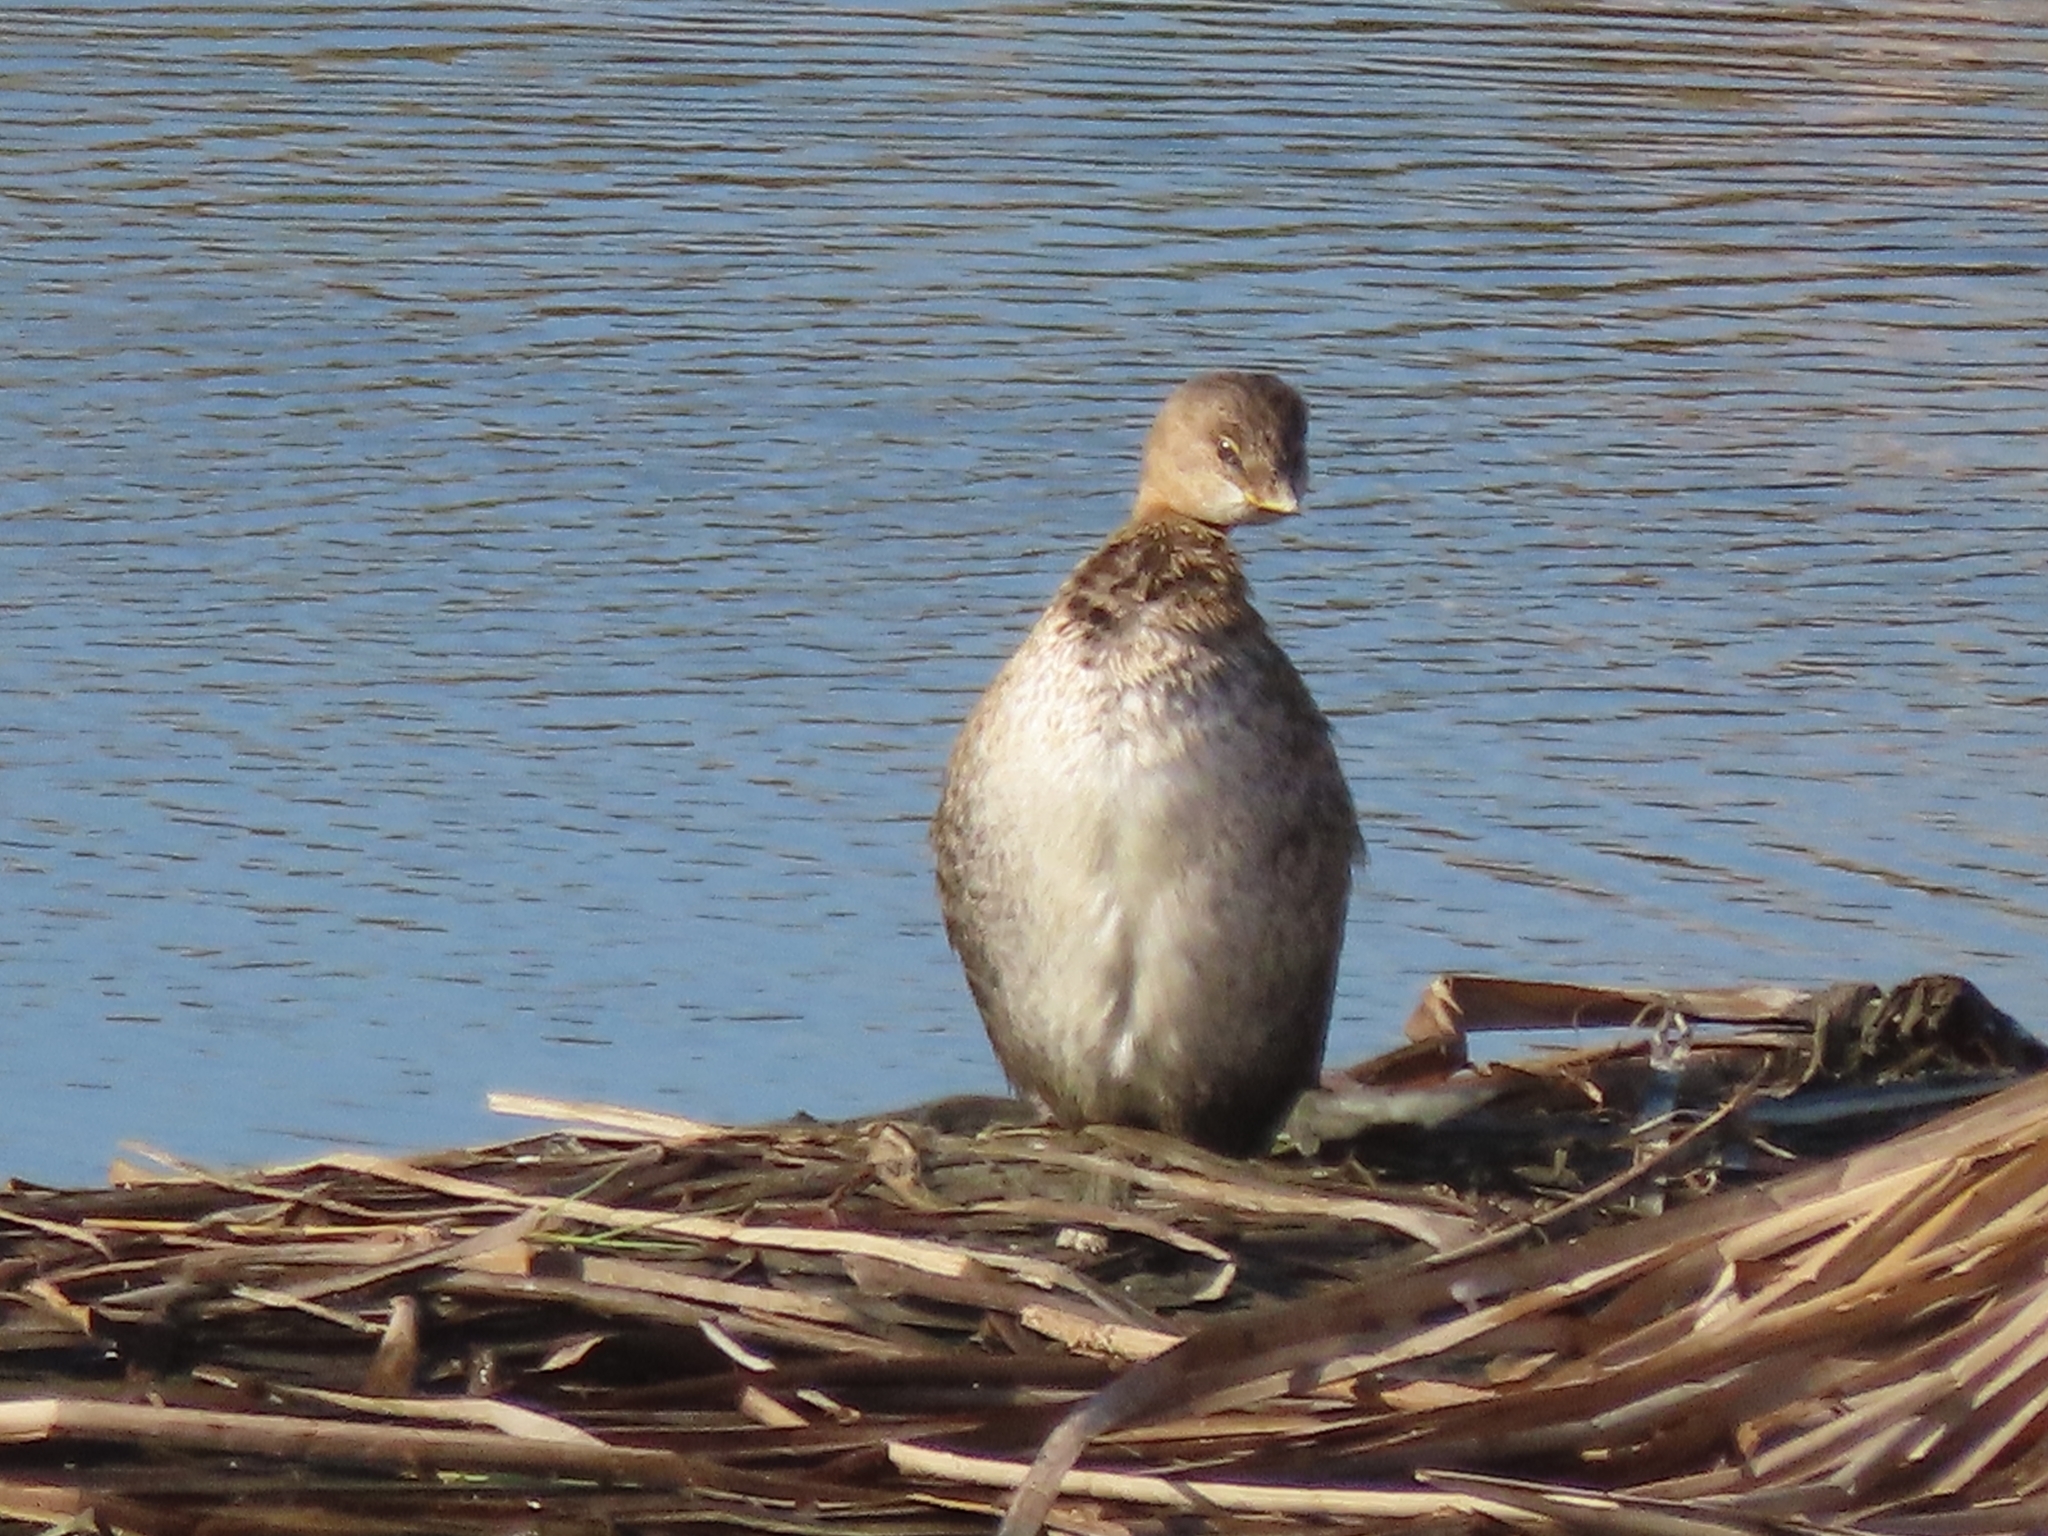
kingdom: Animalia
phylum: Chordata
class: Aves
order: Podicipediformes
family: Podicipedidae
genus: Podilymbus
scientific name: Podilymbus podiceps
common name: Pied-billed grebe
